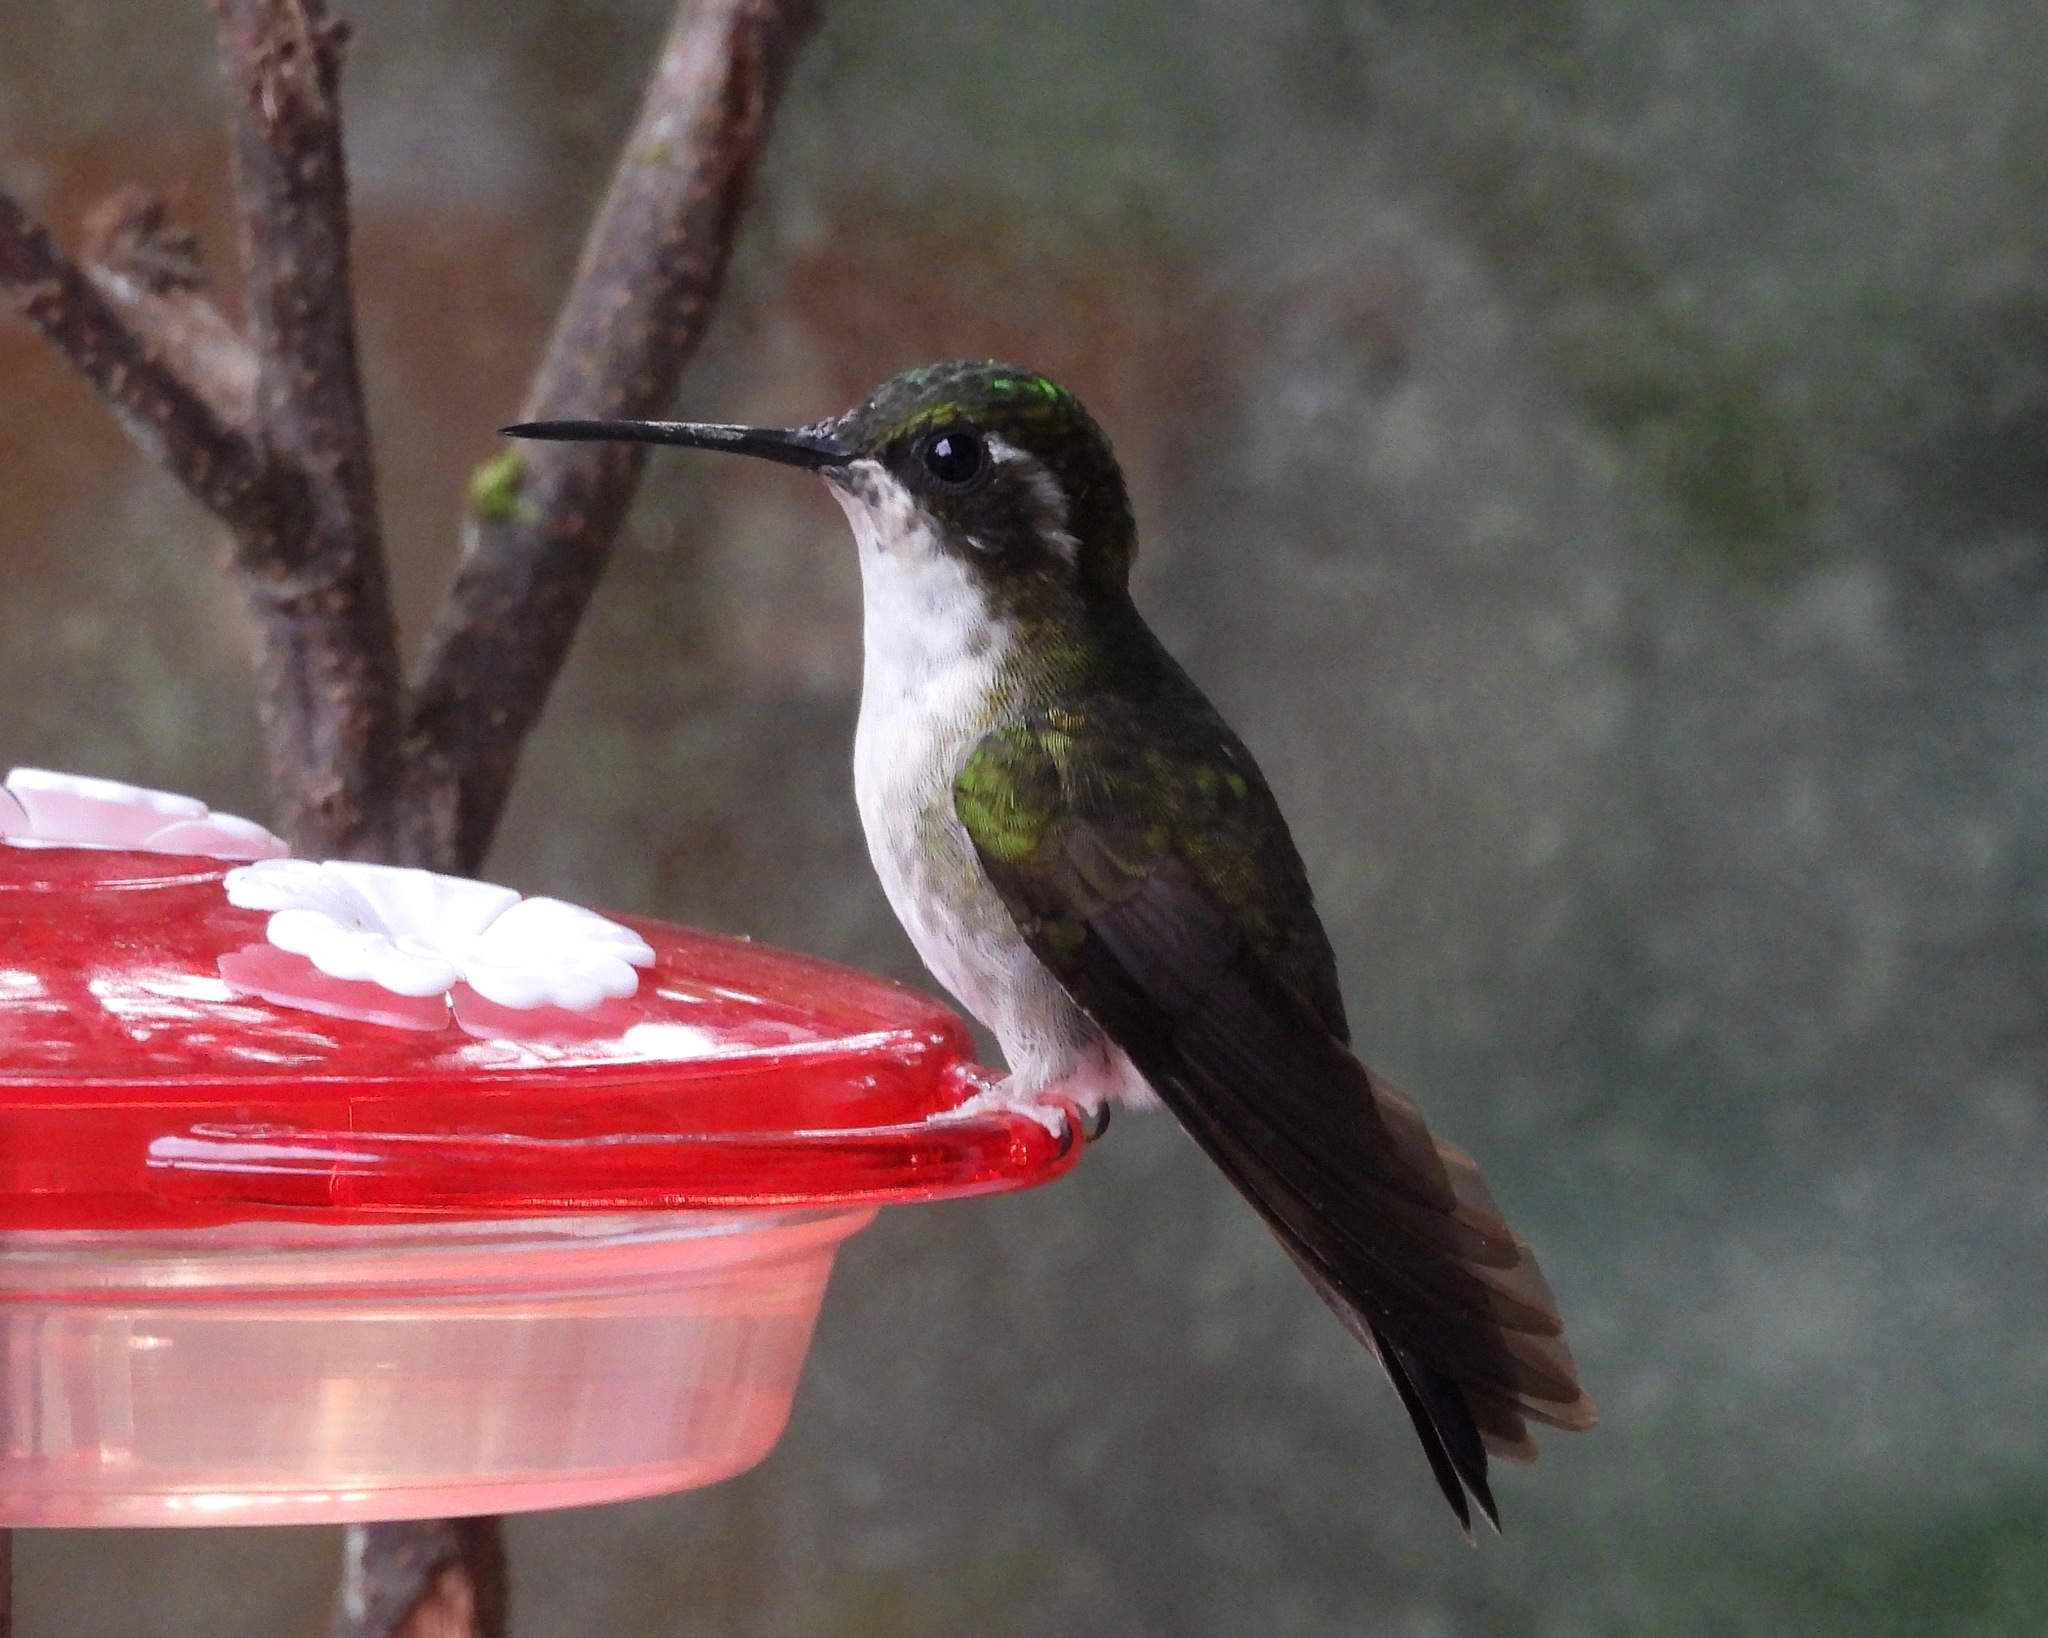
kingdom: Animalia
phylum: Chordata
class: Aves
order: Apodiformes
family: Trochilidae
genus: Lampornis
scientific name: Lampornis viridipallens
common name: Green-throated mountain-gem
